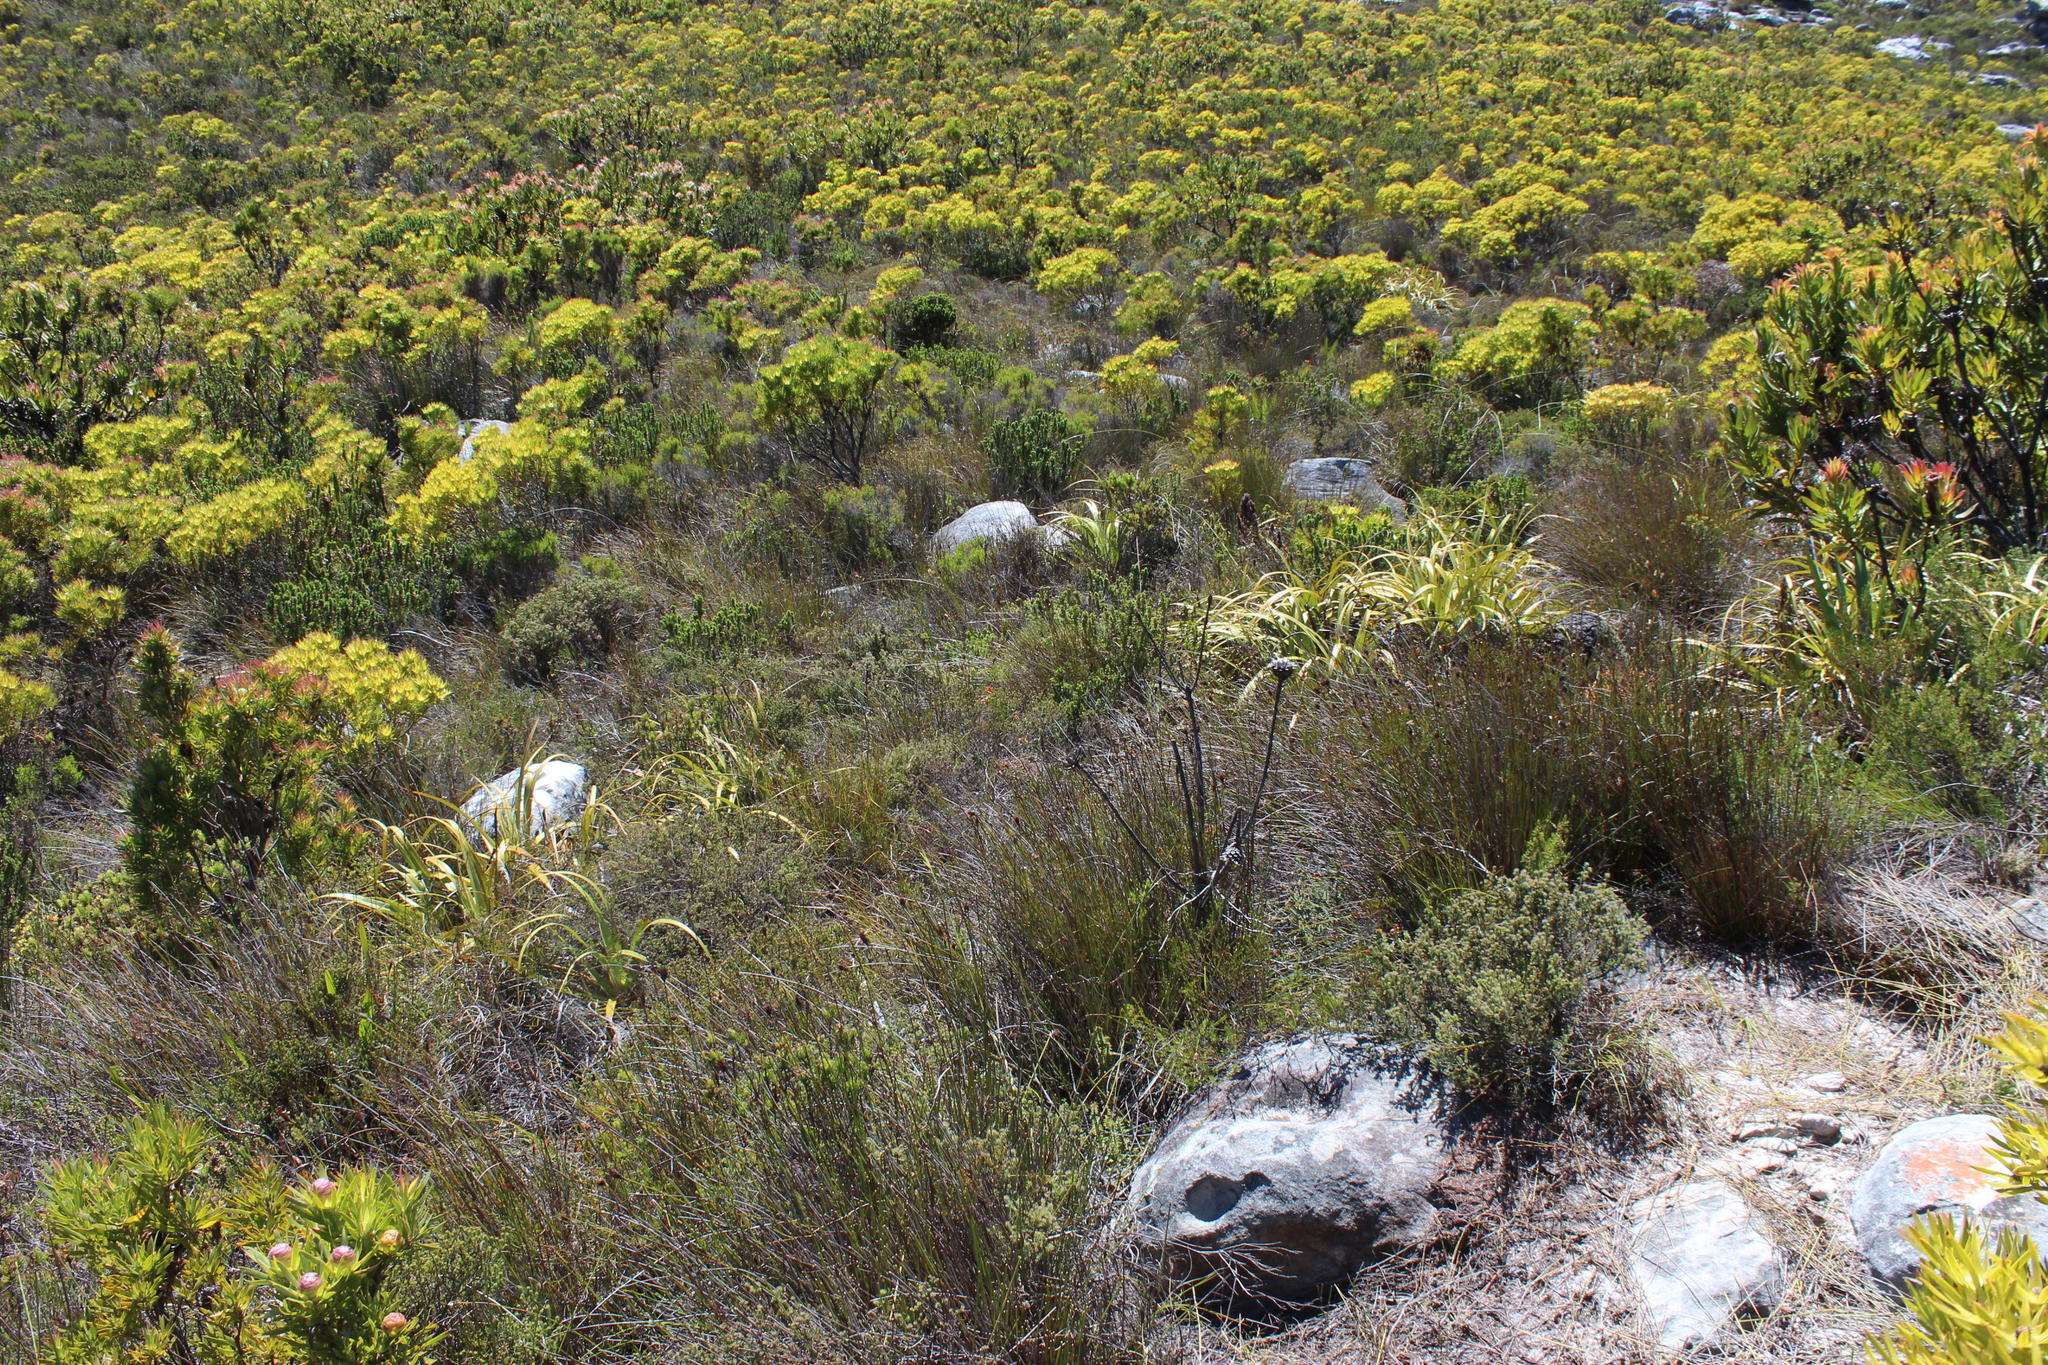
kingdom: Plantae
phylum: Tracheophyta
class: Magnoliopsida
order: Proteales
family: Proteaceae
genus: Leucadendron
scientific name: Leucadendron xanthoconus
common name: Sickle-leaf conebush
